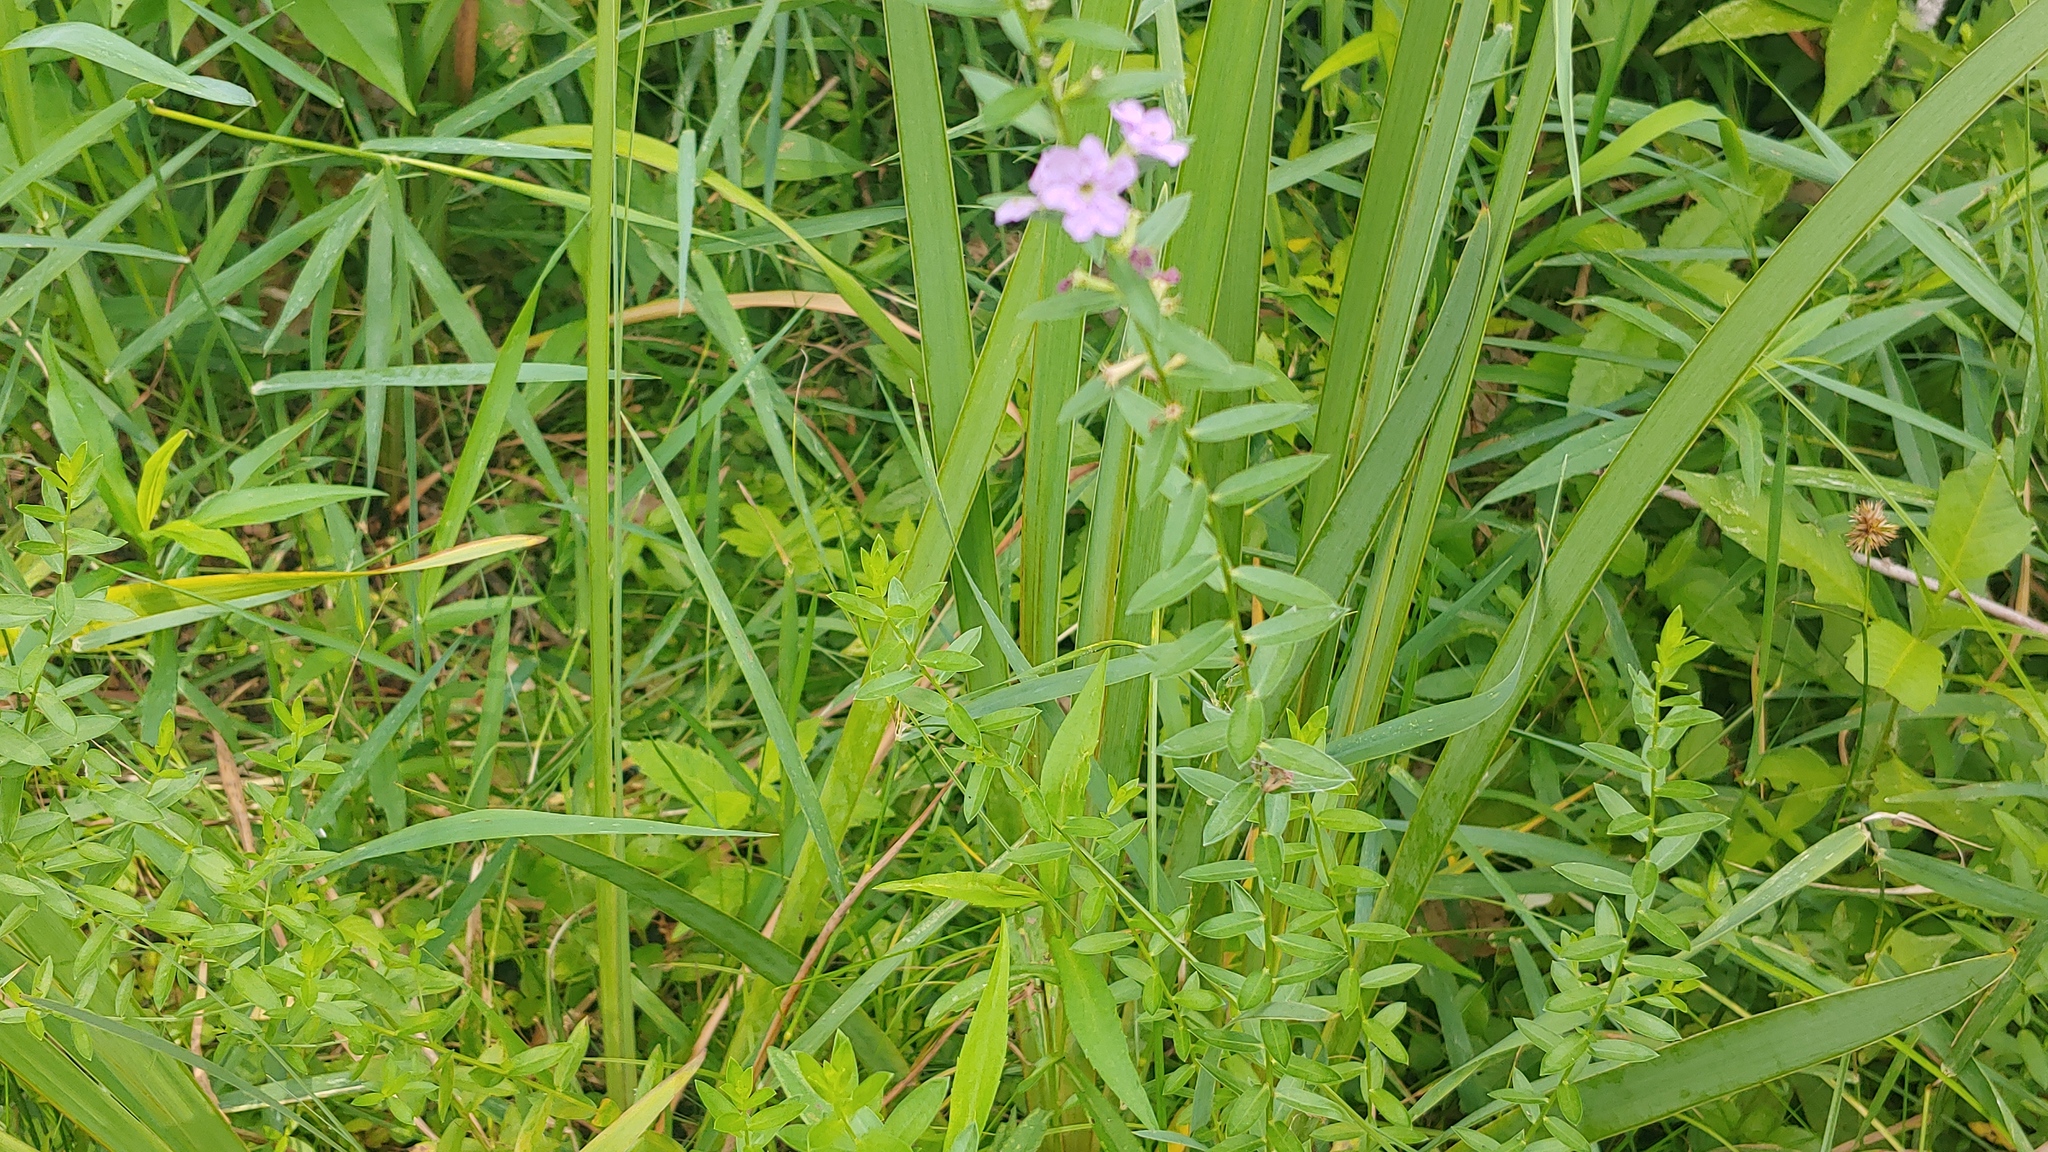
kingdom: Plantae
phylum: Tracheophyta
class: Magnoliopsida
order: Myrtales
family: Lythraceae
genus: Lythrum
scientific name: Lythrum alatum
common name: Winged loosestrife
